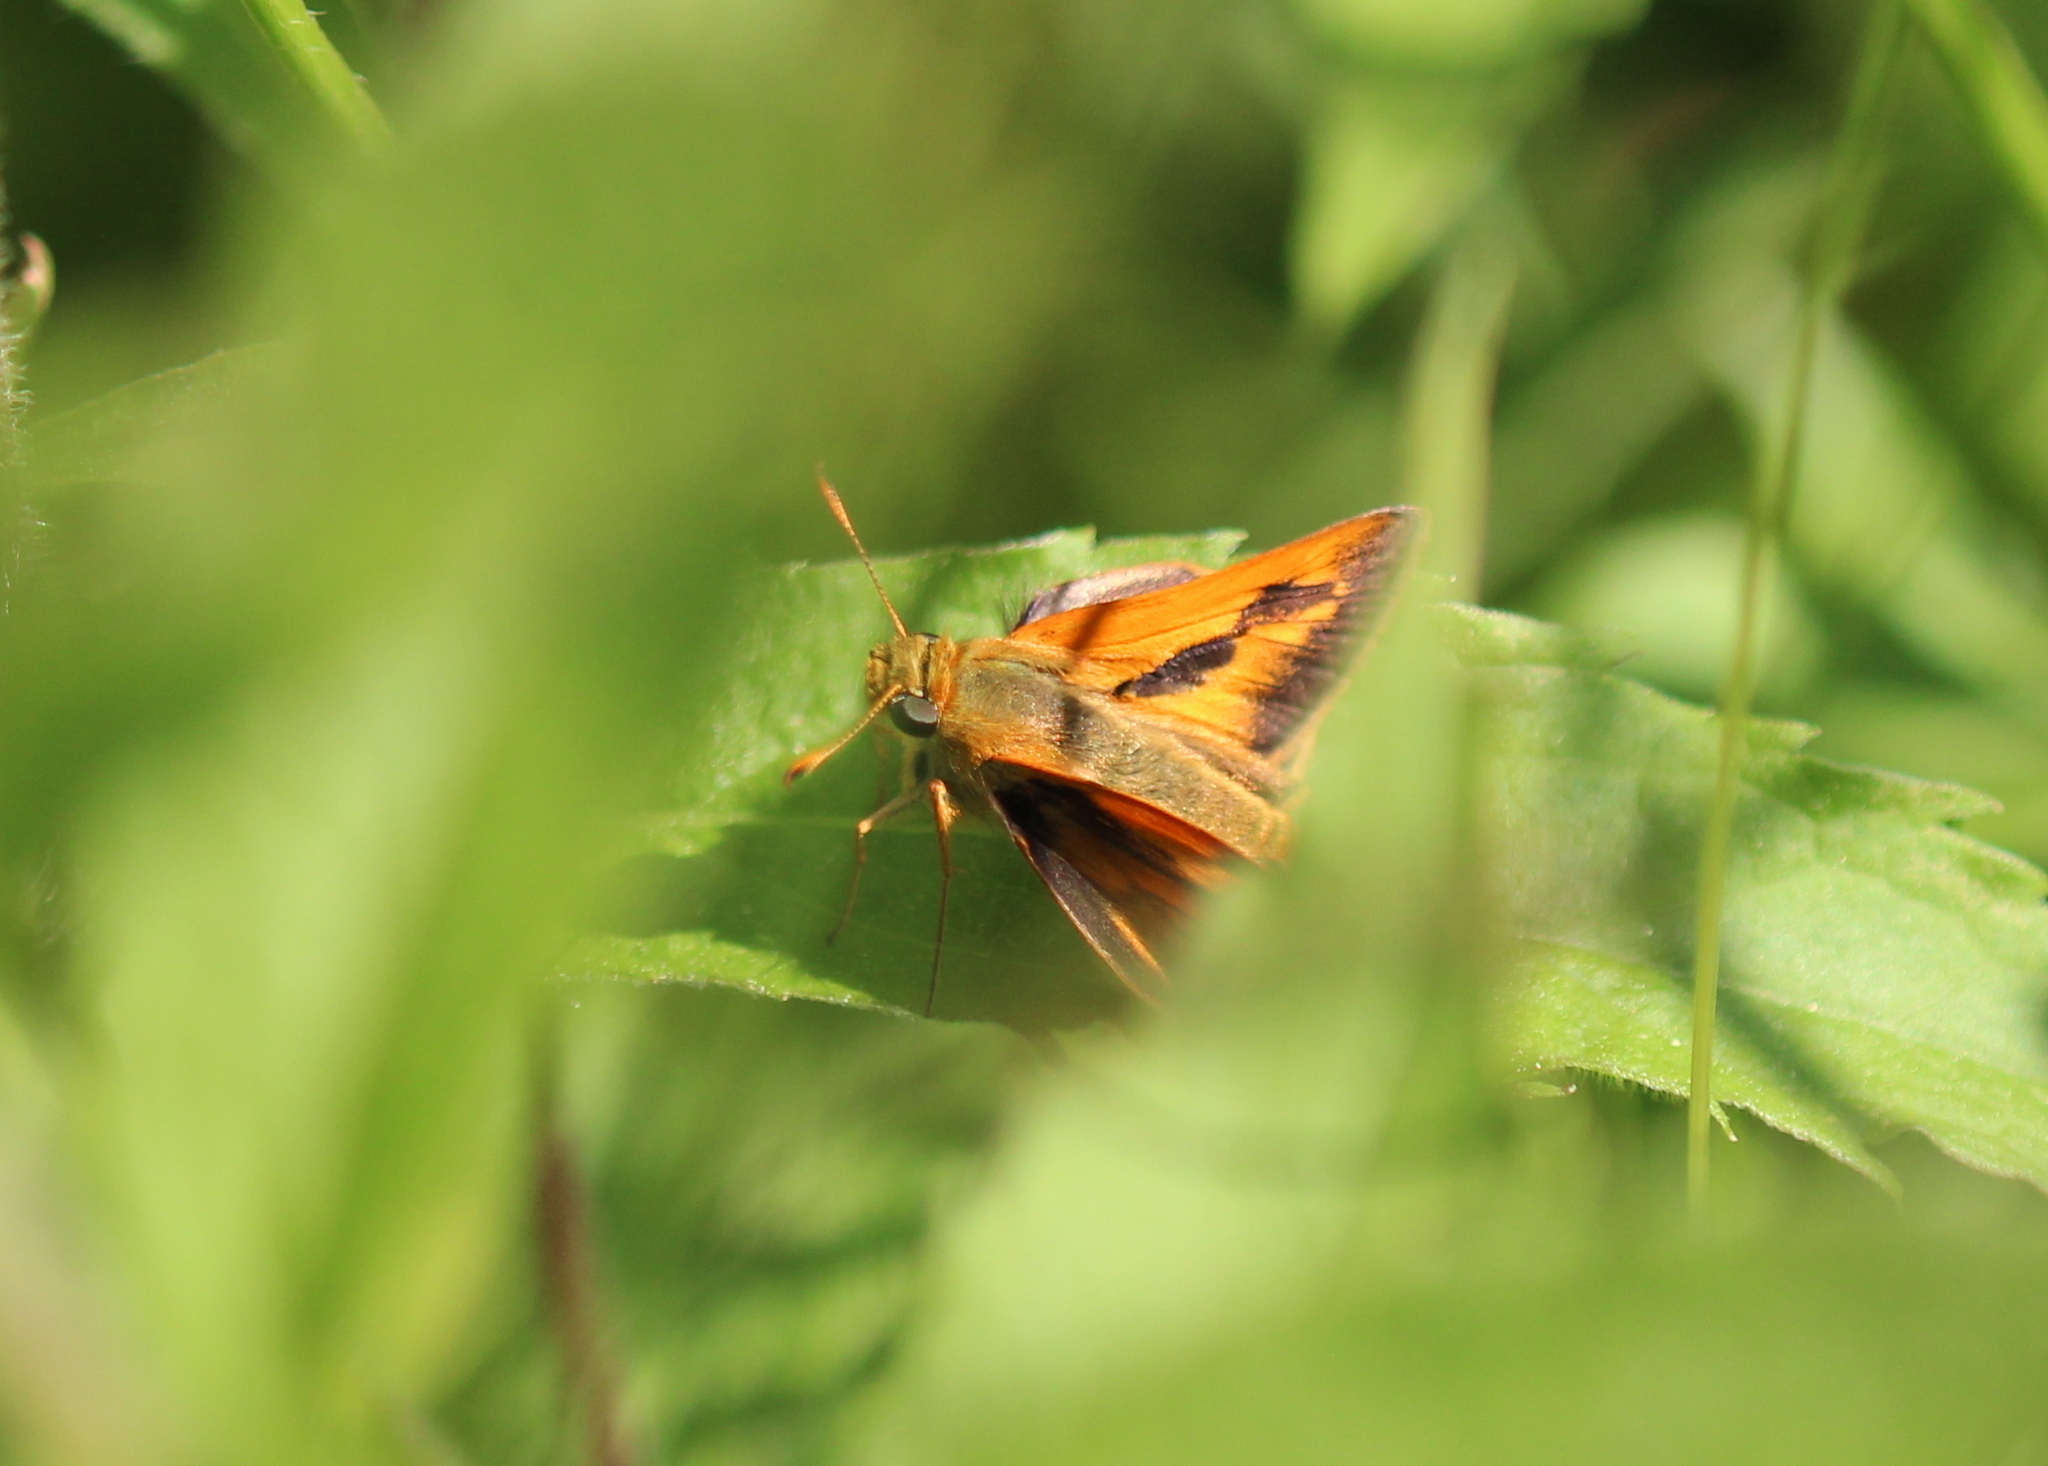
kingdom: Animalia
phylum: Arthropoda
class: Insecta
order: Lepidoptera
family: Hesperiidae
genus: Polites
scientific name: Polites mystic
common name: Long dash
